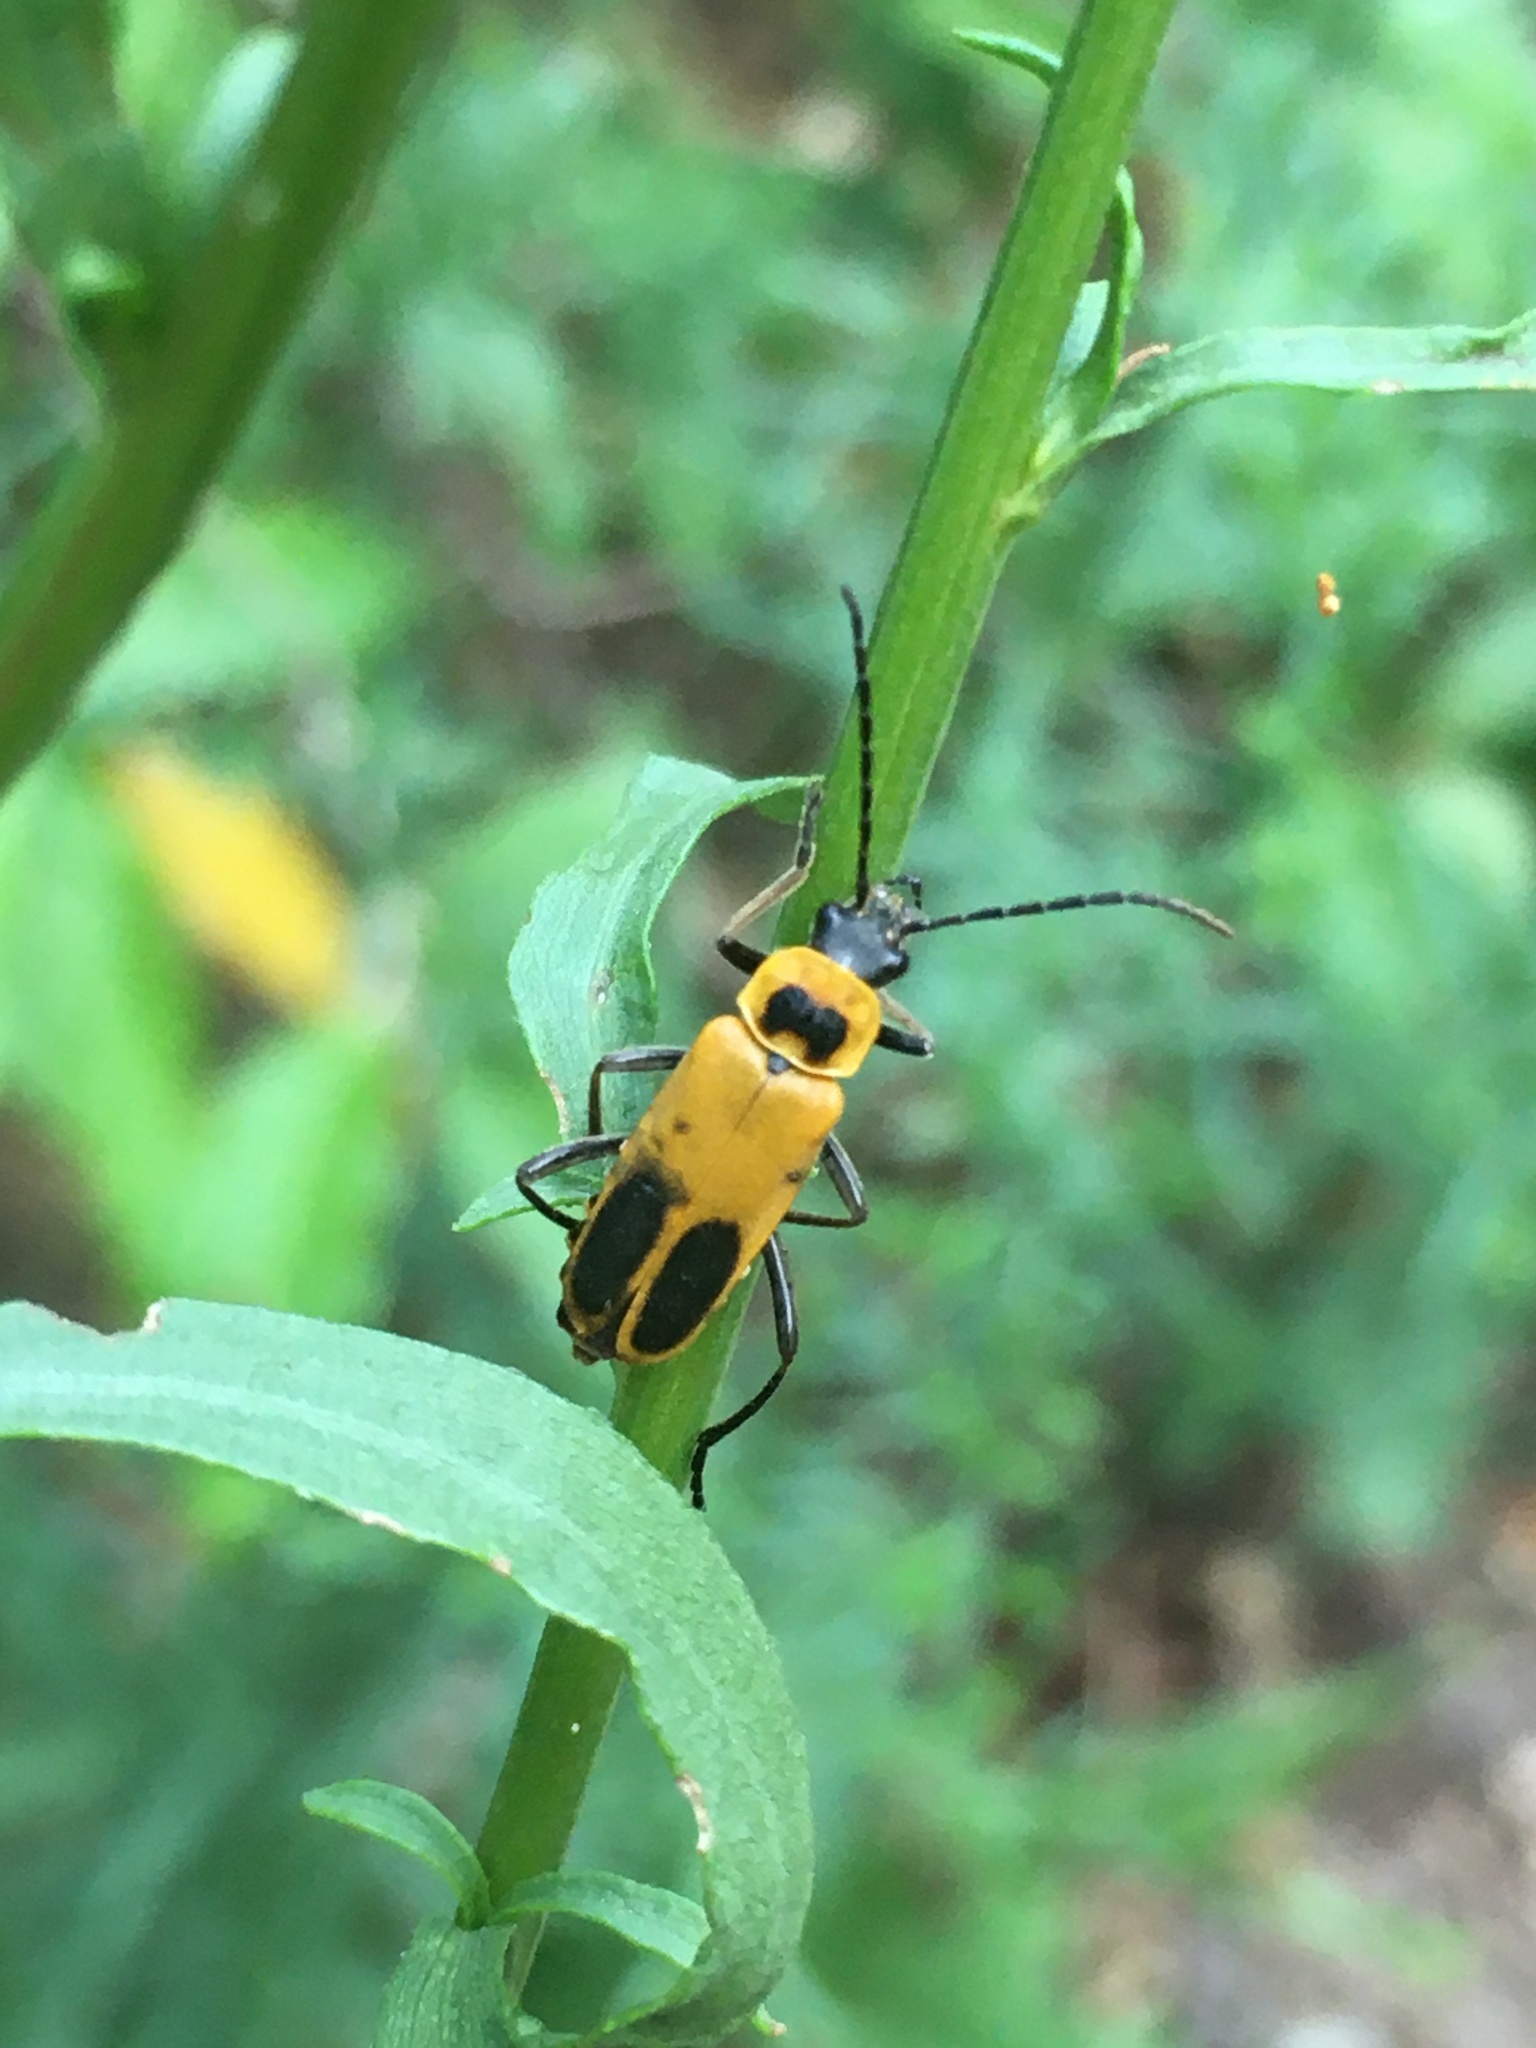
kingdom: Animalia
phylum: Arthropoda
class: Insecta
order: Coleoptera
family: Cantharidae
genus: Chauliognathus
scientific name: Chauliognathus pensylvanicus
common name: Goldenrod soldier beetle
